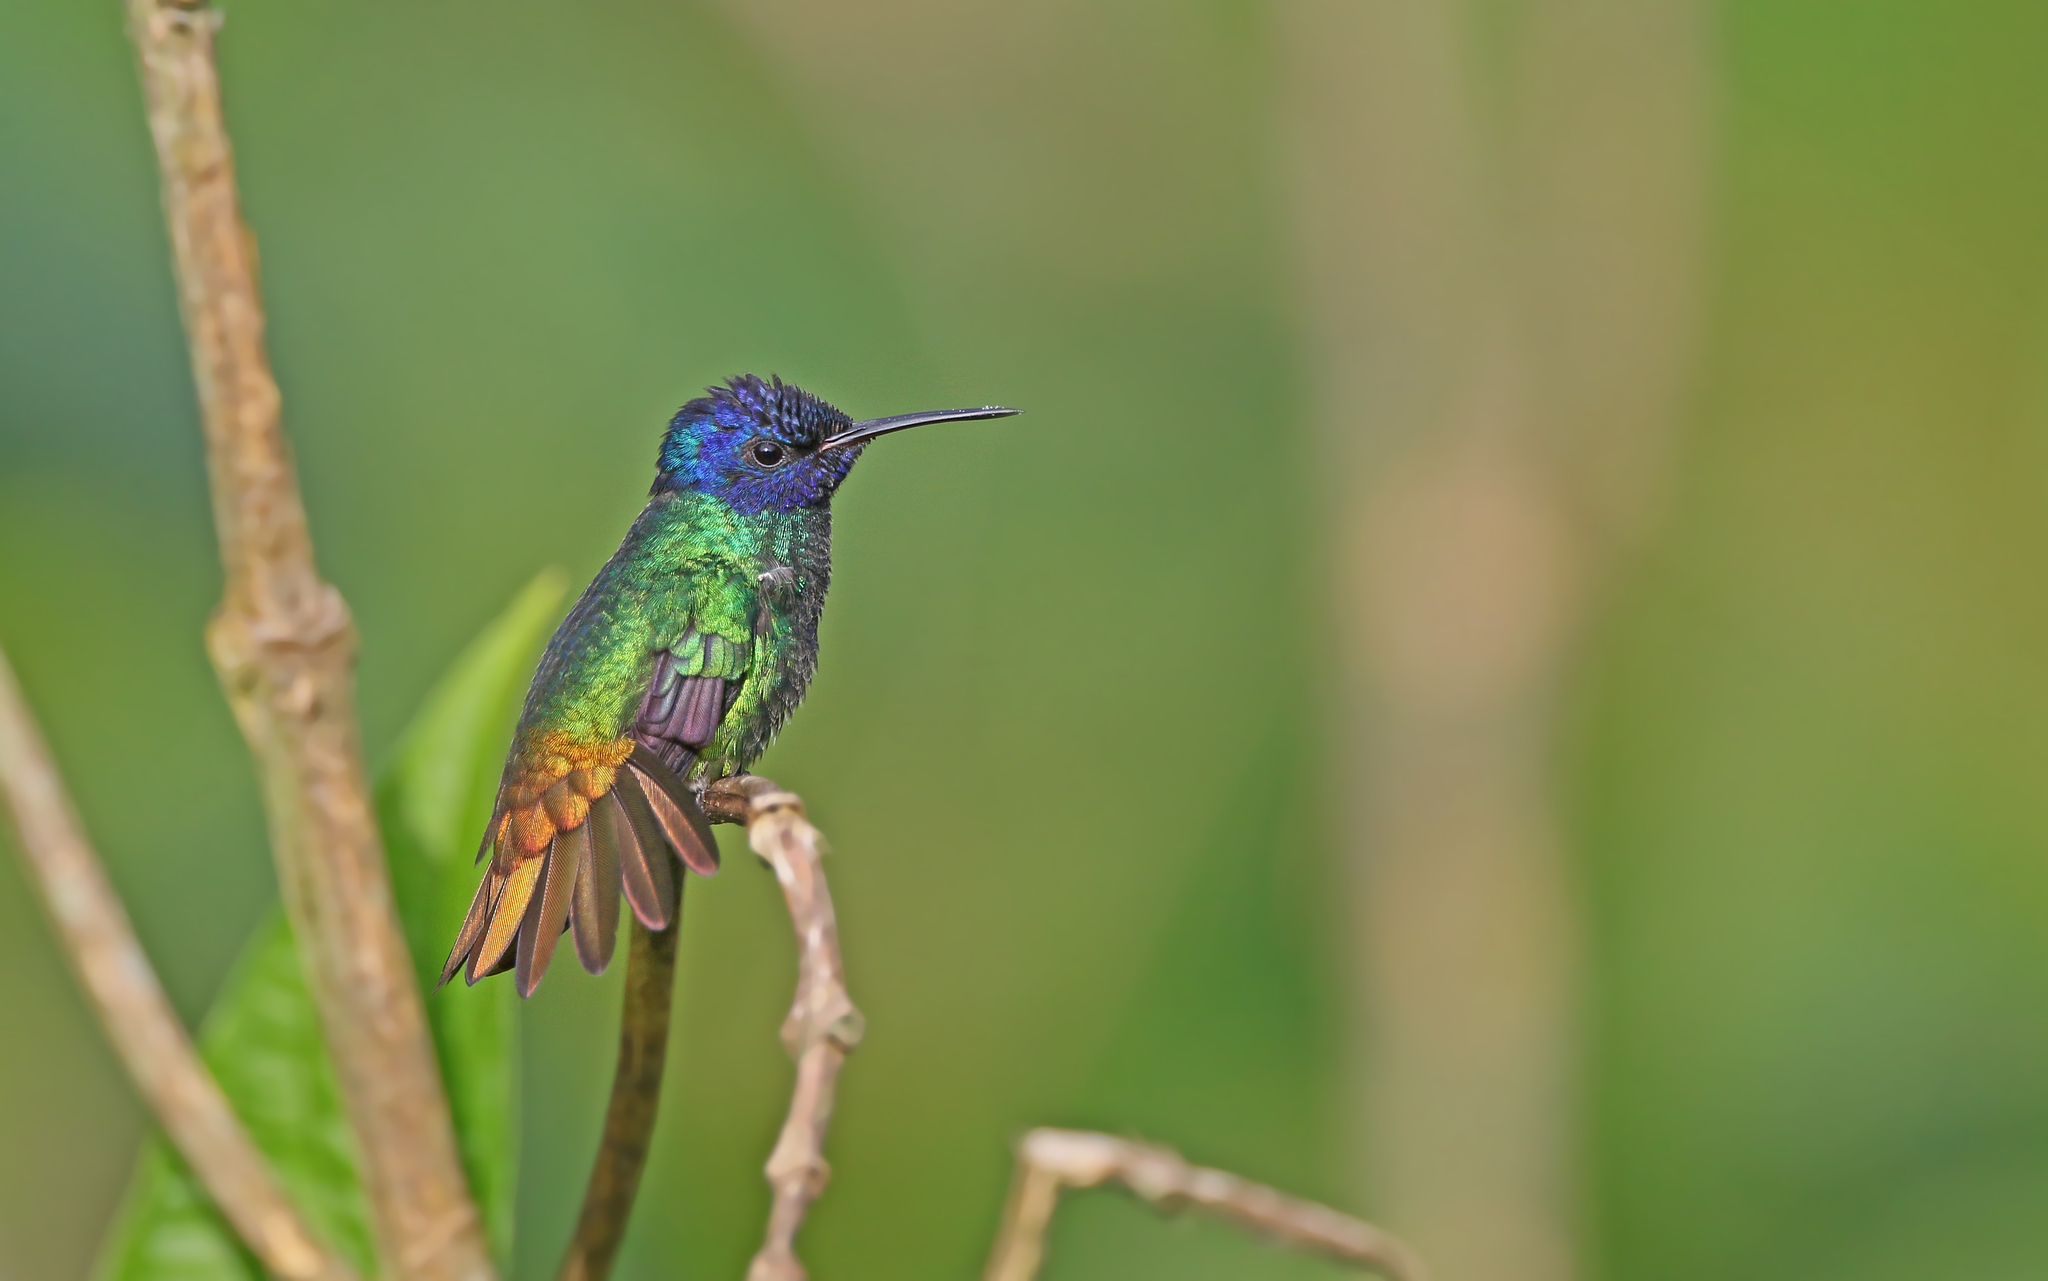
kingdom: Animalia
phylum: Chordata
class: Aves
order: Apodiformes
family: Trochilidae
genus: Chrysuronia
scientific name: Chrysuronia oenone
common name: Golden-tailed sapphire
